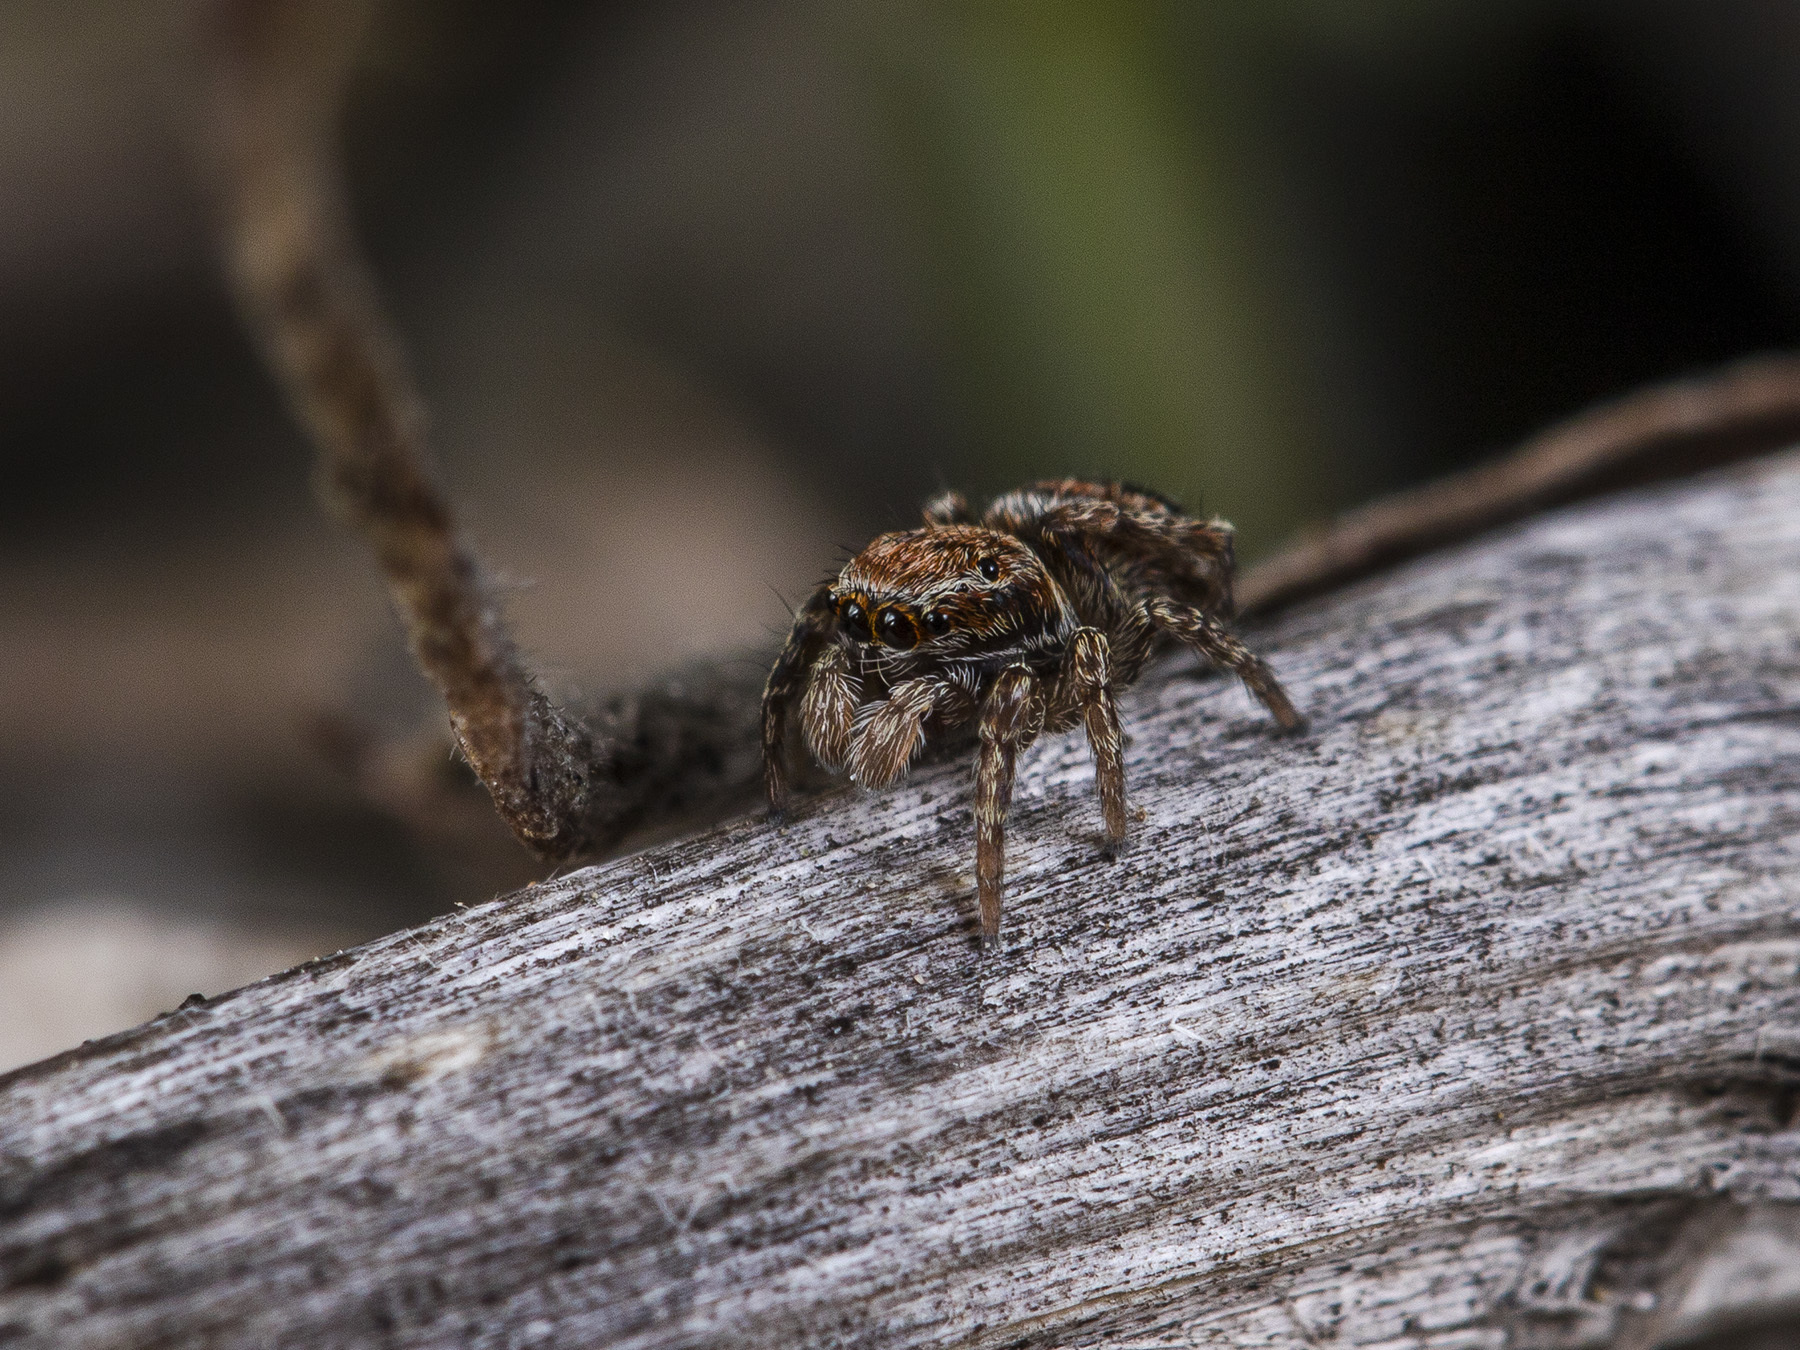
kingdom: Animalia
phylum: Arthropoda
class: Arachnida
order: Araneae
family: Salticidae
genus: Attulus
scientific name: Attulus mirandus
